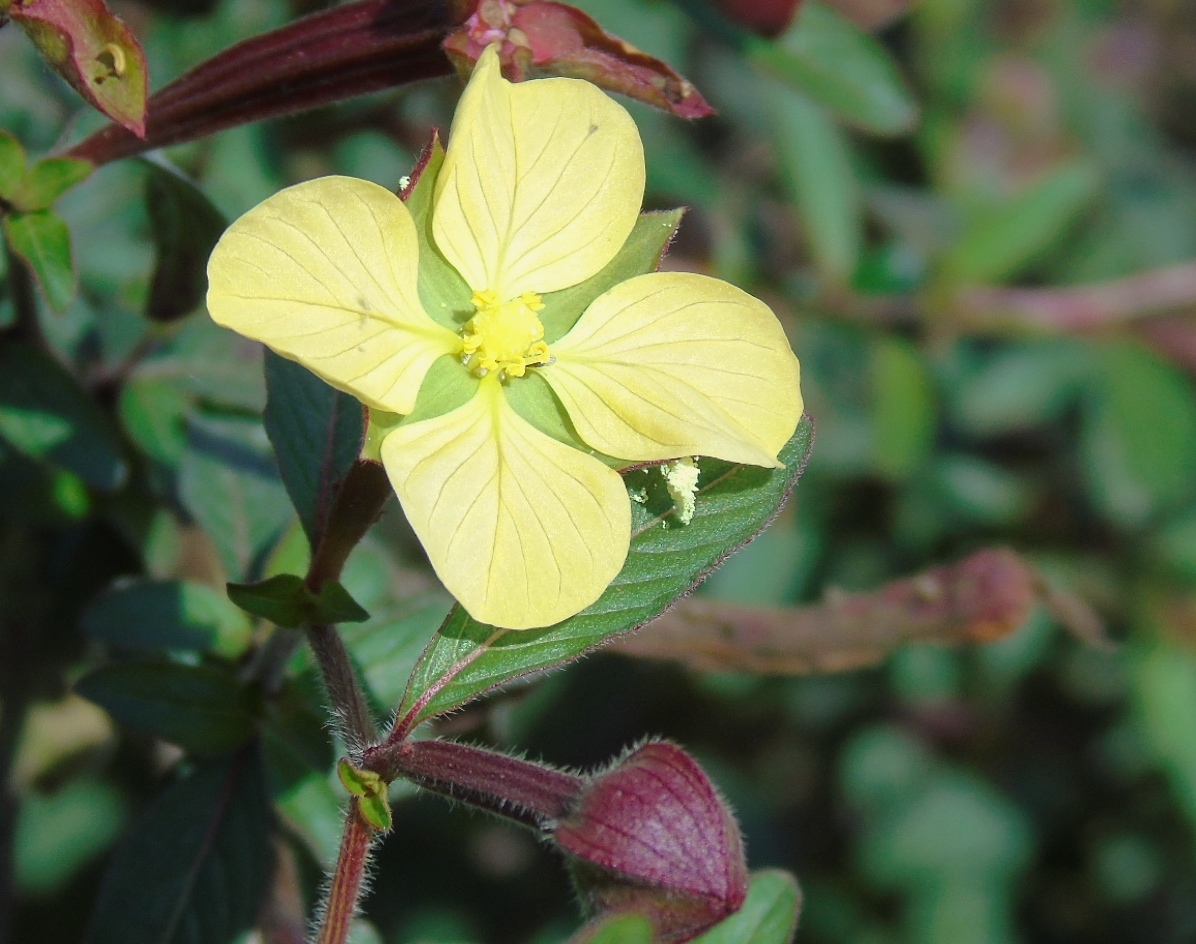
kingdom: Plantae
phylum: Tracheophyta
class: Magnoliopsida
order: Myrtales
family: Onagraceae
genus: Ludwigia
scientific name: Ludwigia octovalvis
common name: Water-primrose
